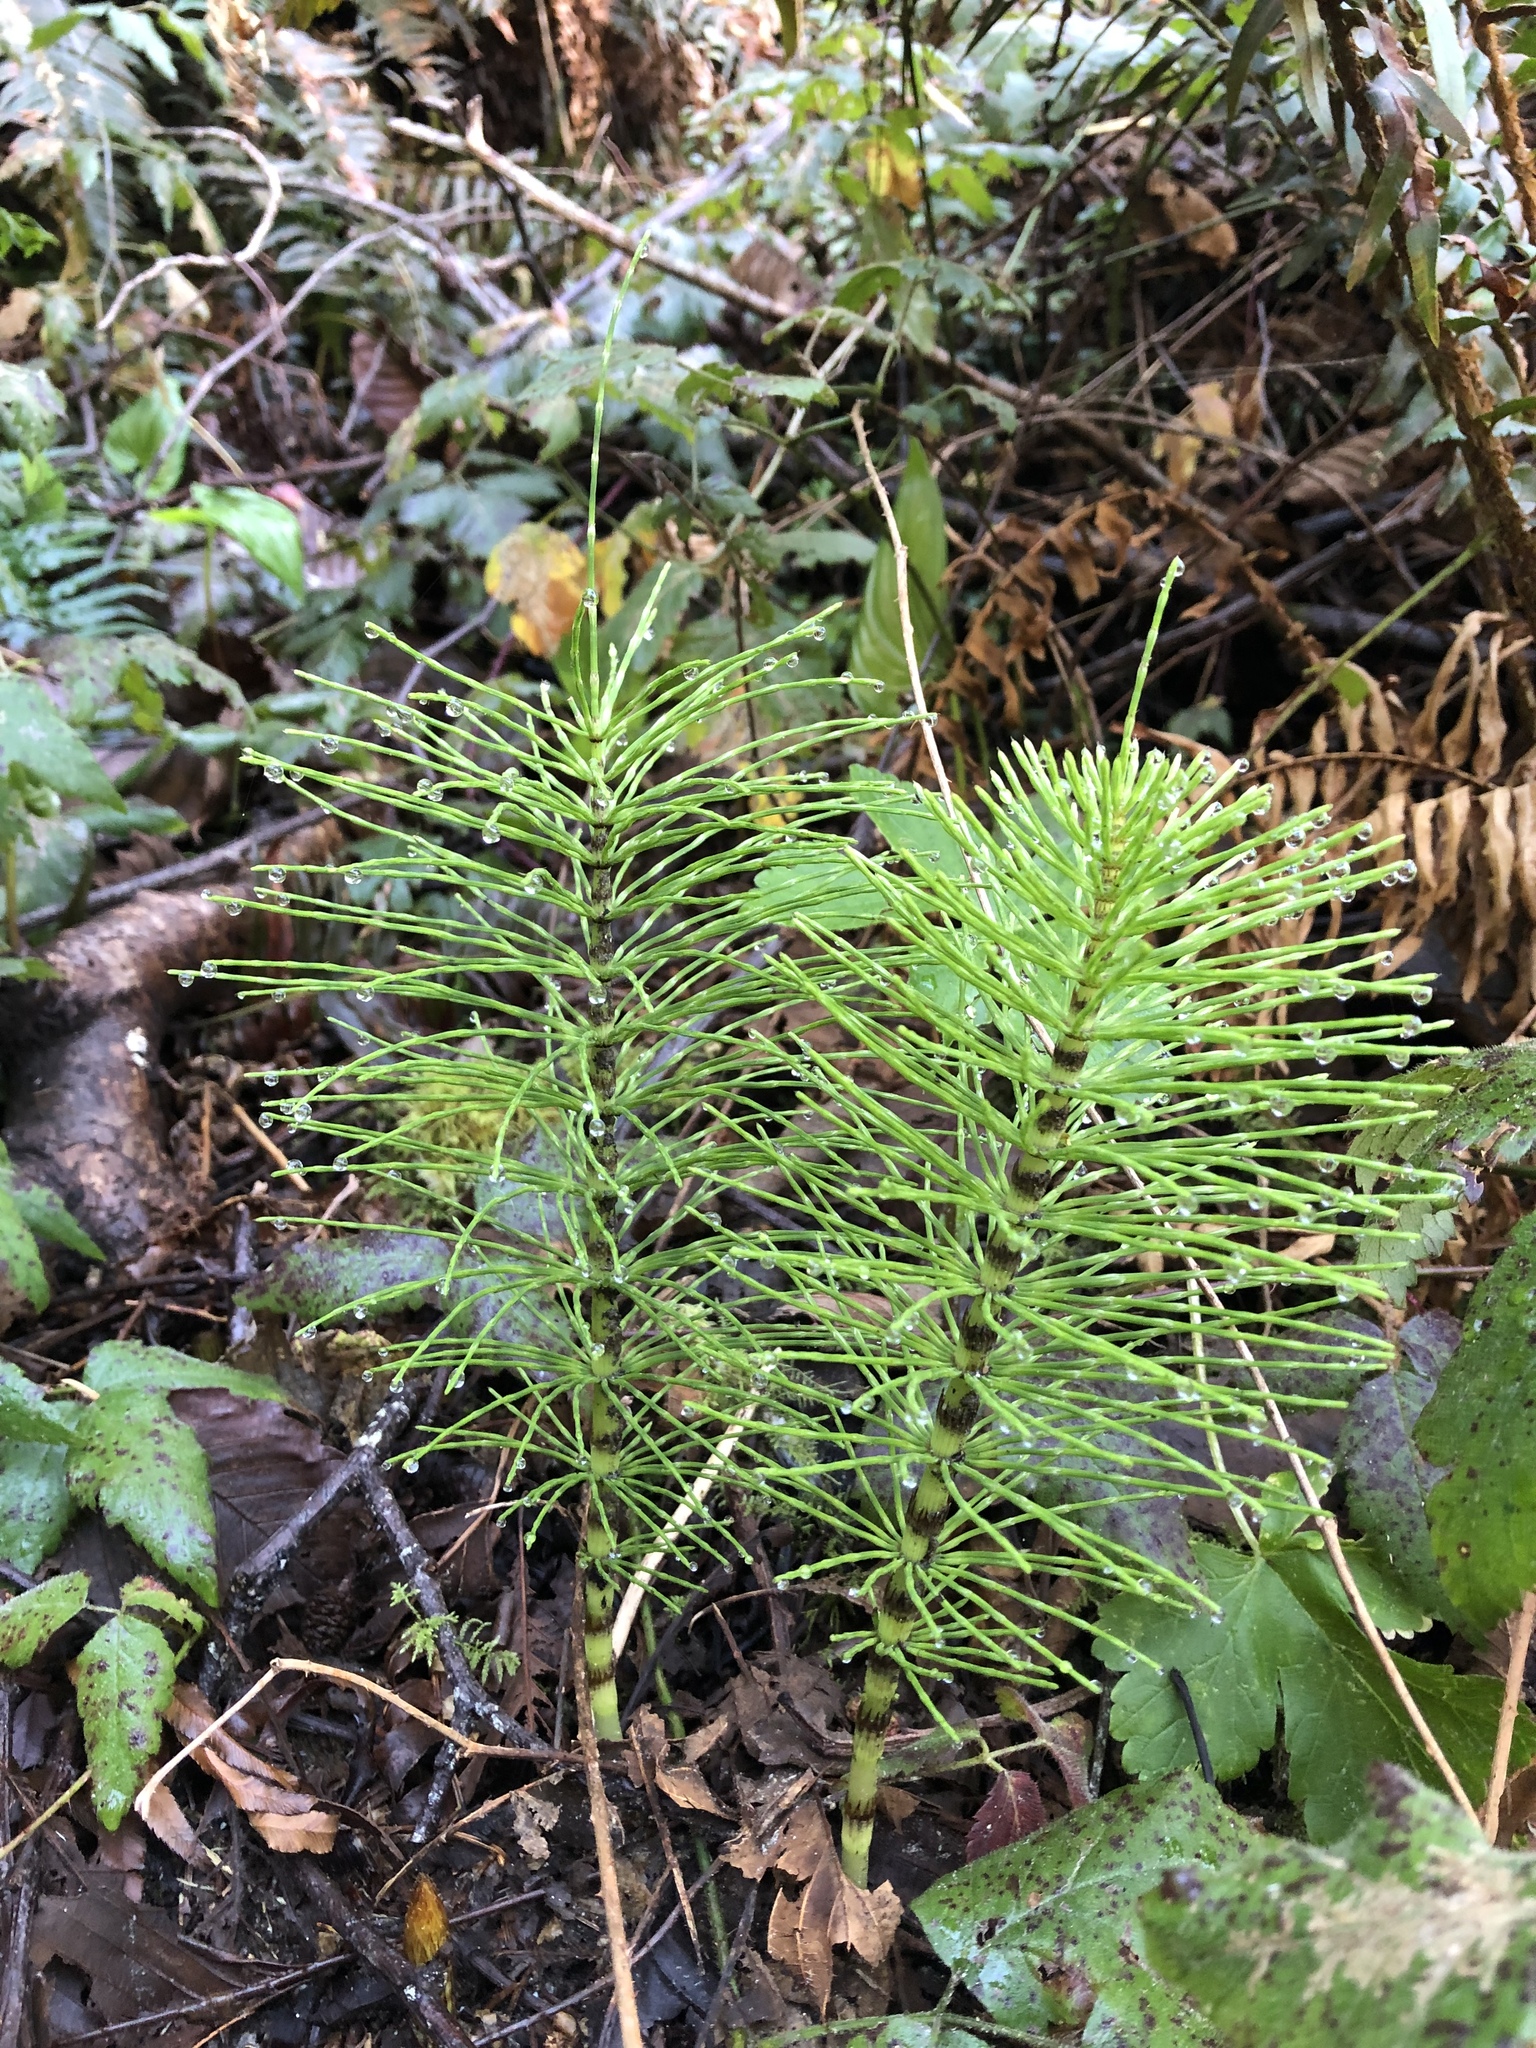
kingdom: Plantae
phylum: Tracheophyta
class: Polypodiopsida
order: Equisetales
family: Equisetaceae
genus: Equisetum
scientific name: Equisetum telmateia
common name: Great horsetail
